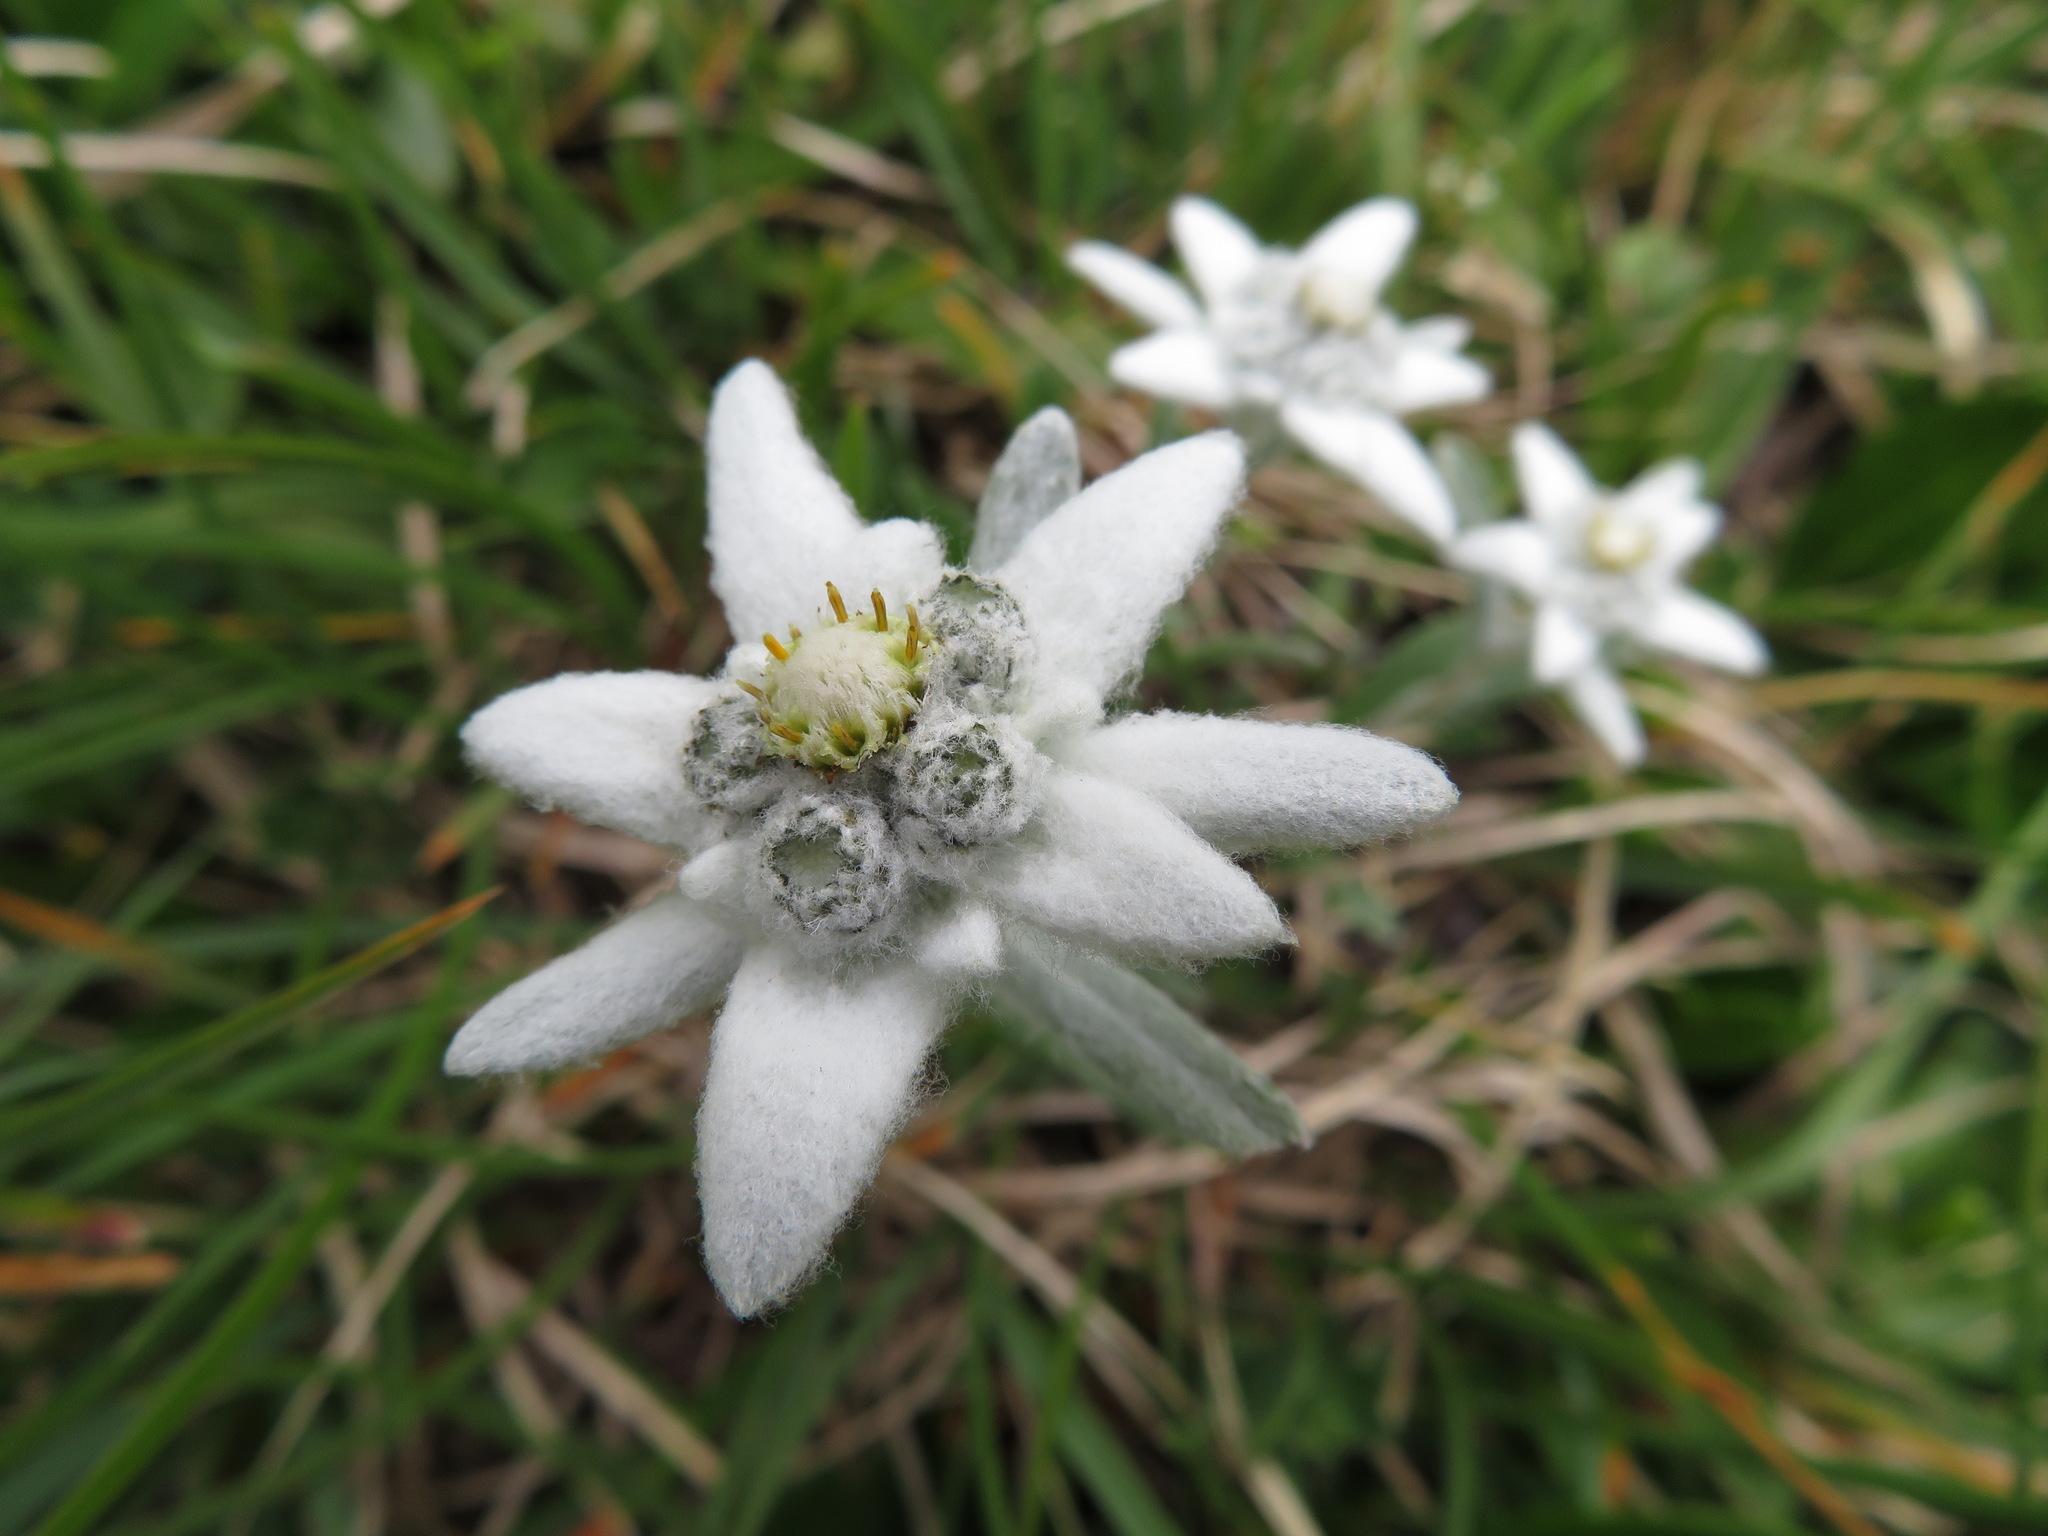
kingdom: Plantae
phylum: Tracheophyta
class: Magnoliopsida
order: Asterales
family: Asteraceae
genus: Leontopodium
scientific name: Leontopodium nivale
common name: Edelweiss
